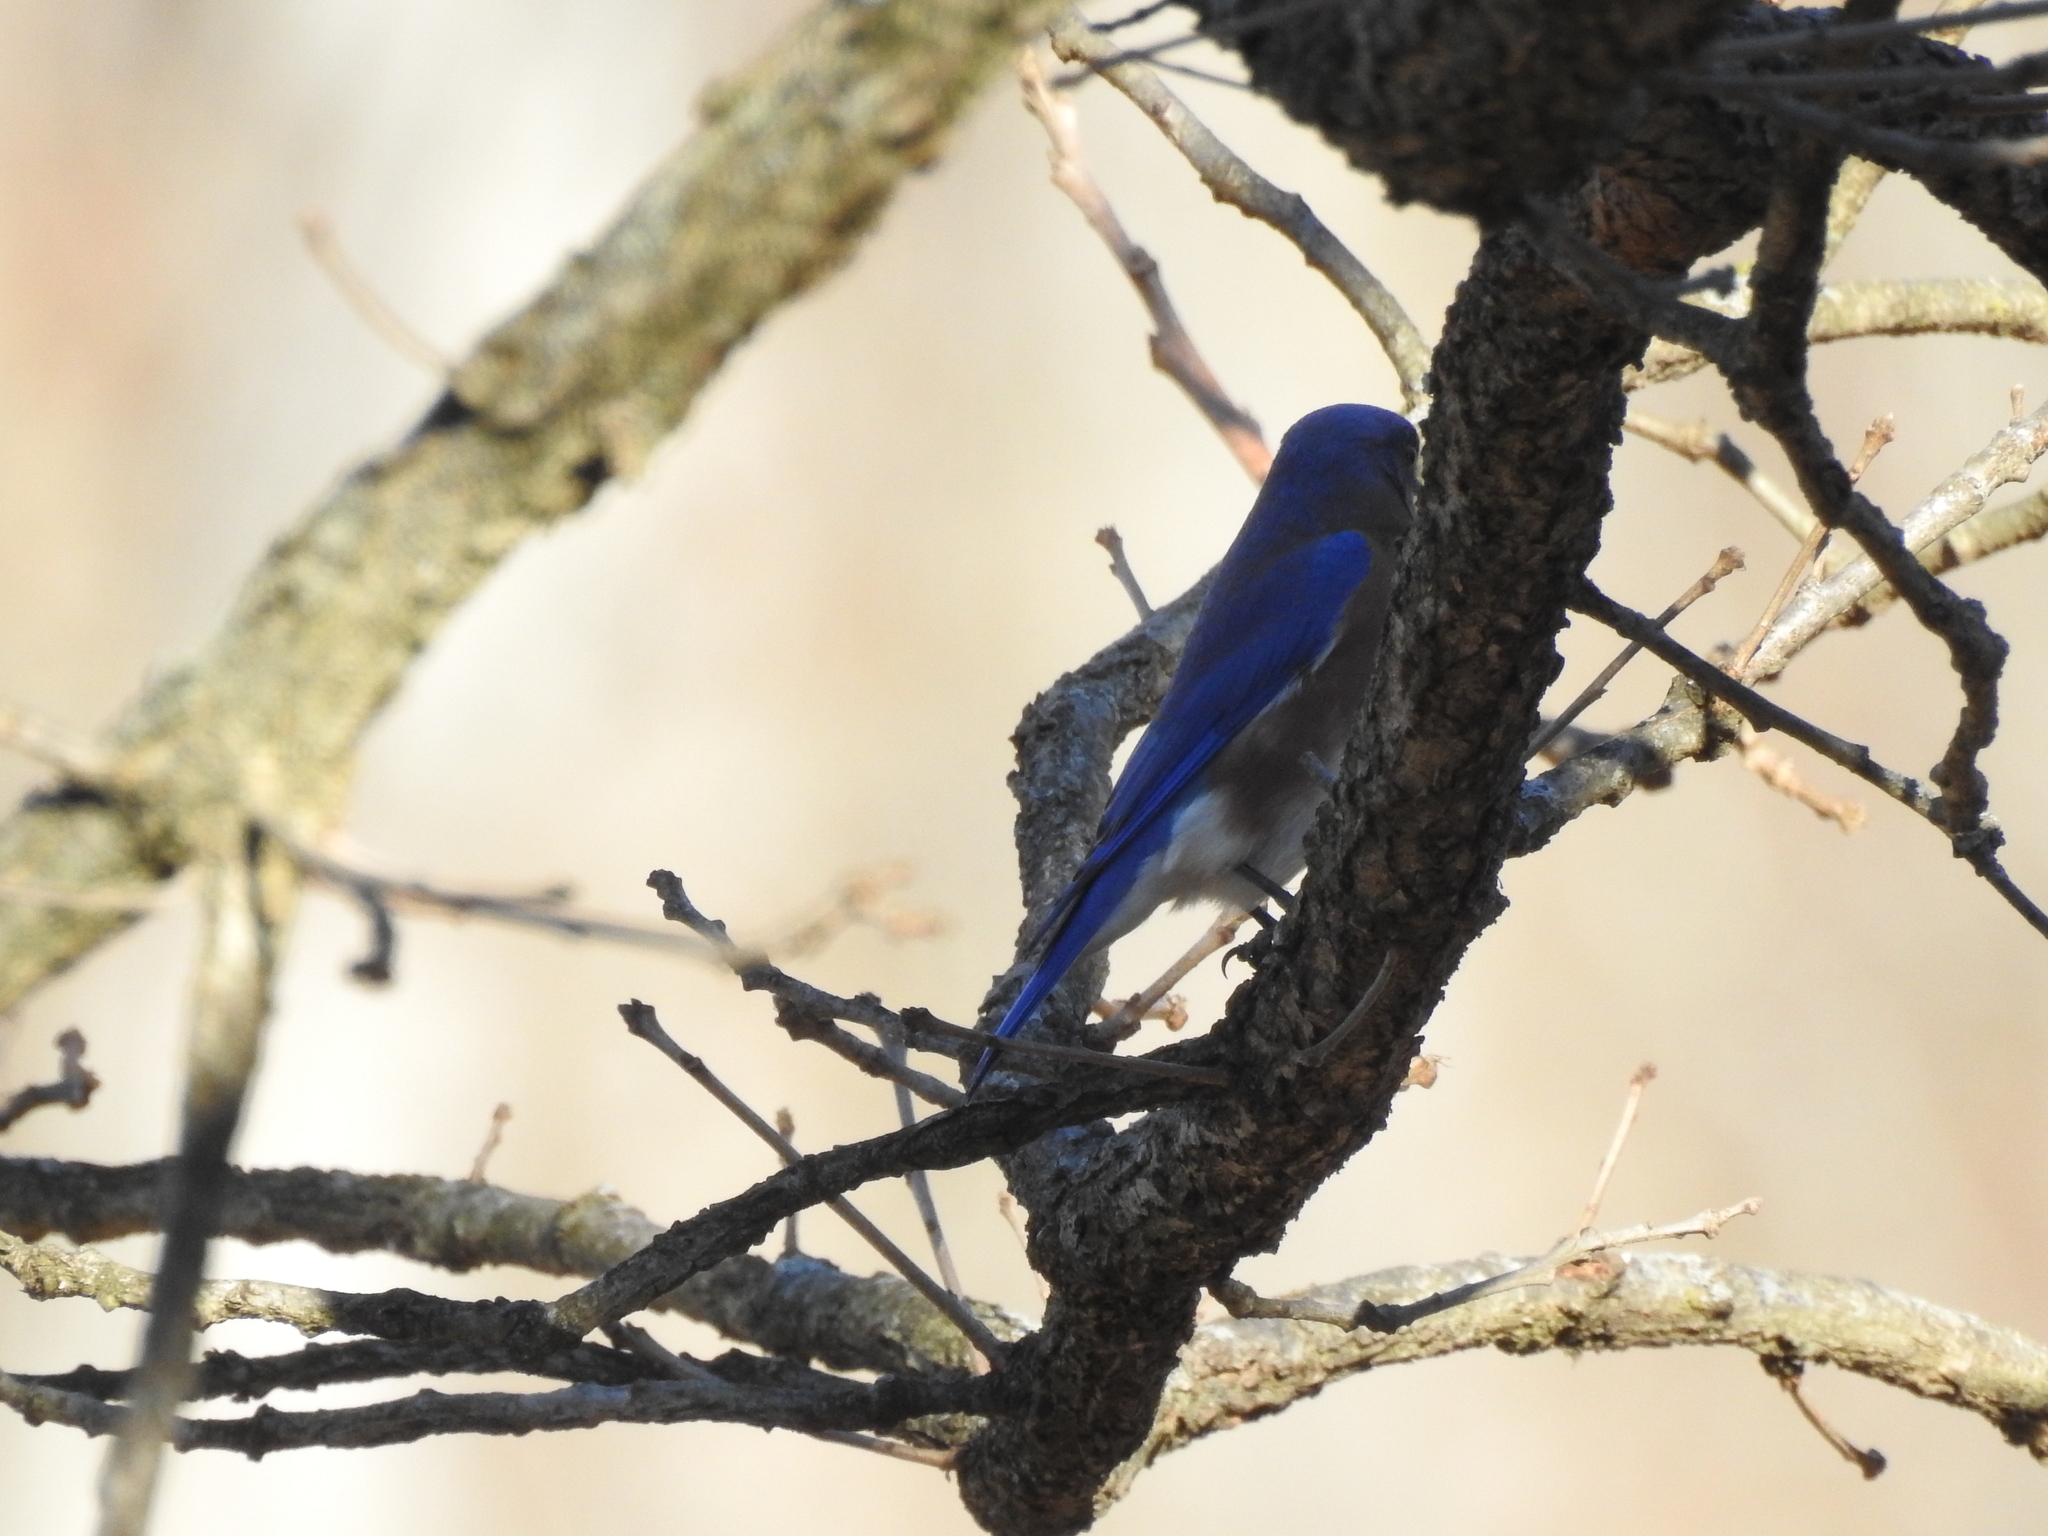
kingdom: Animalia
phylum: Chordata
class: Aves
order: Passeriformes
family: Turdidae
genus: Sialia
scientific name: Sialia sialis
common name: Eastern bluebird
